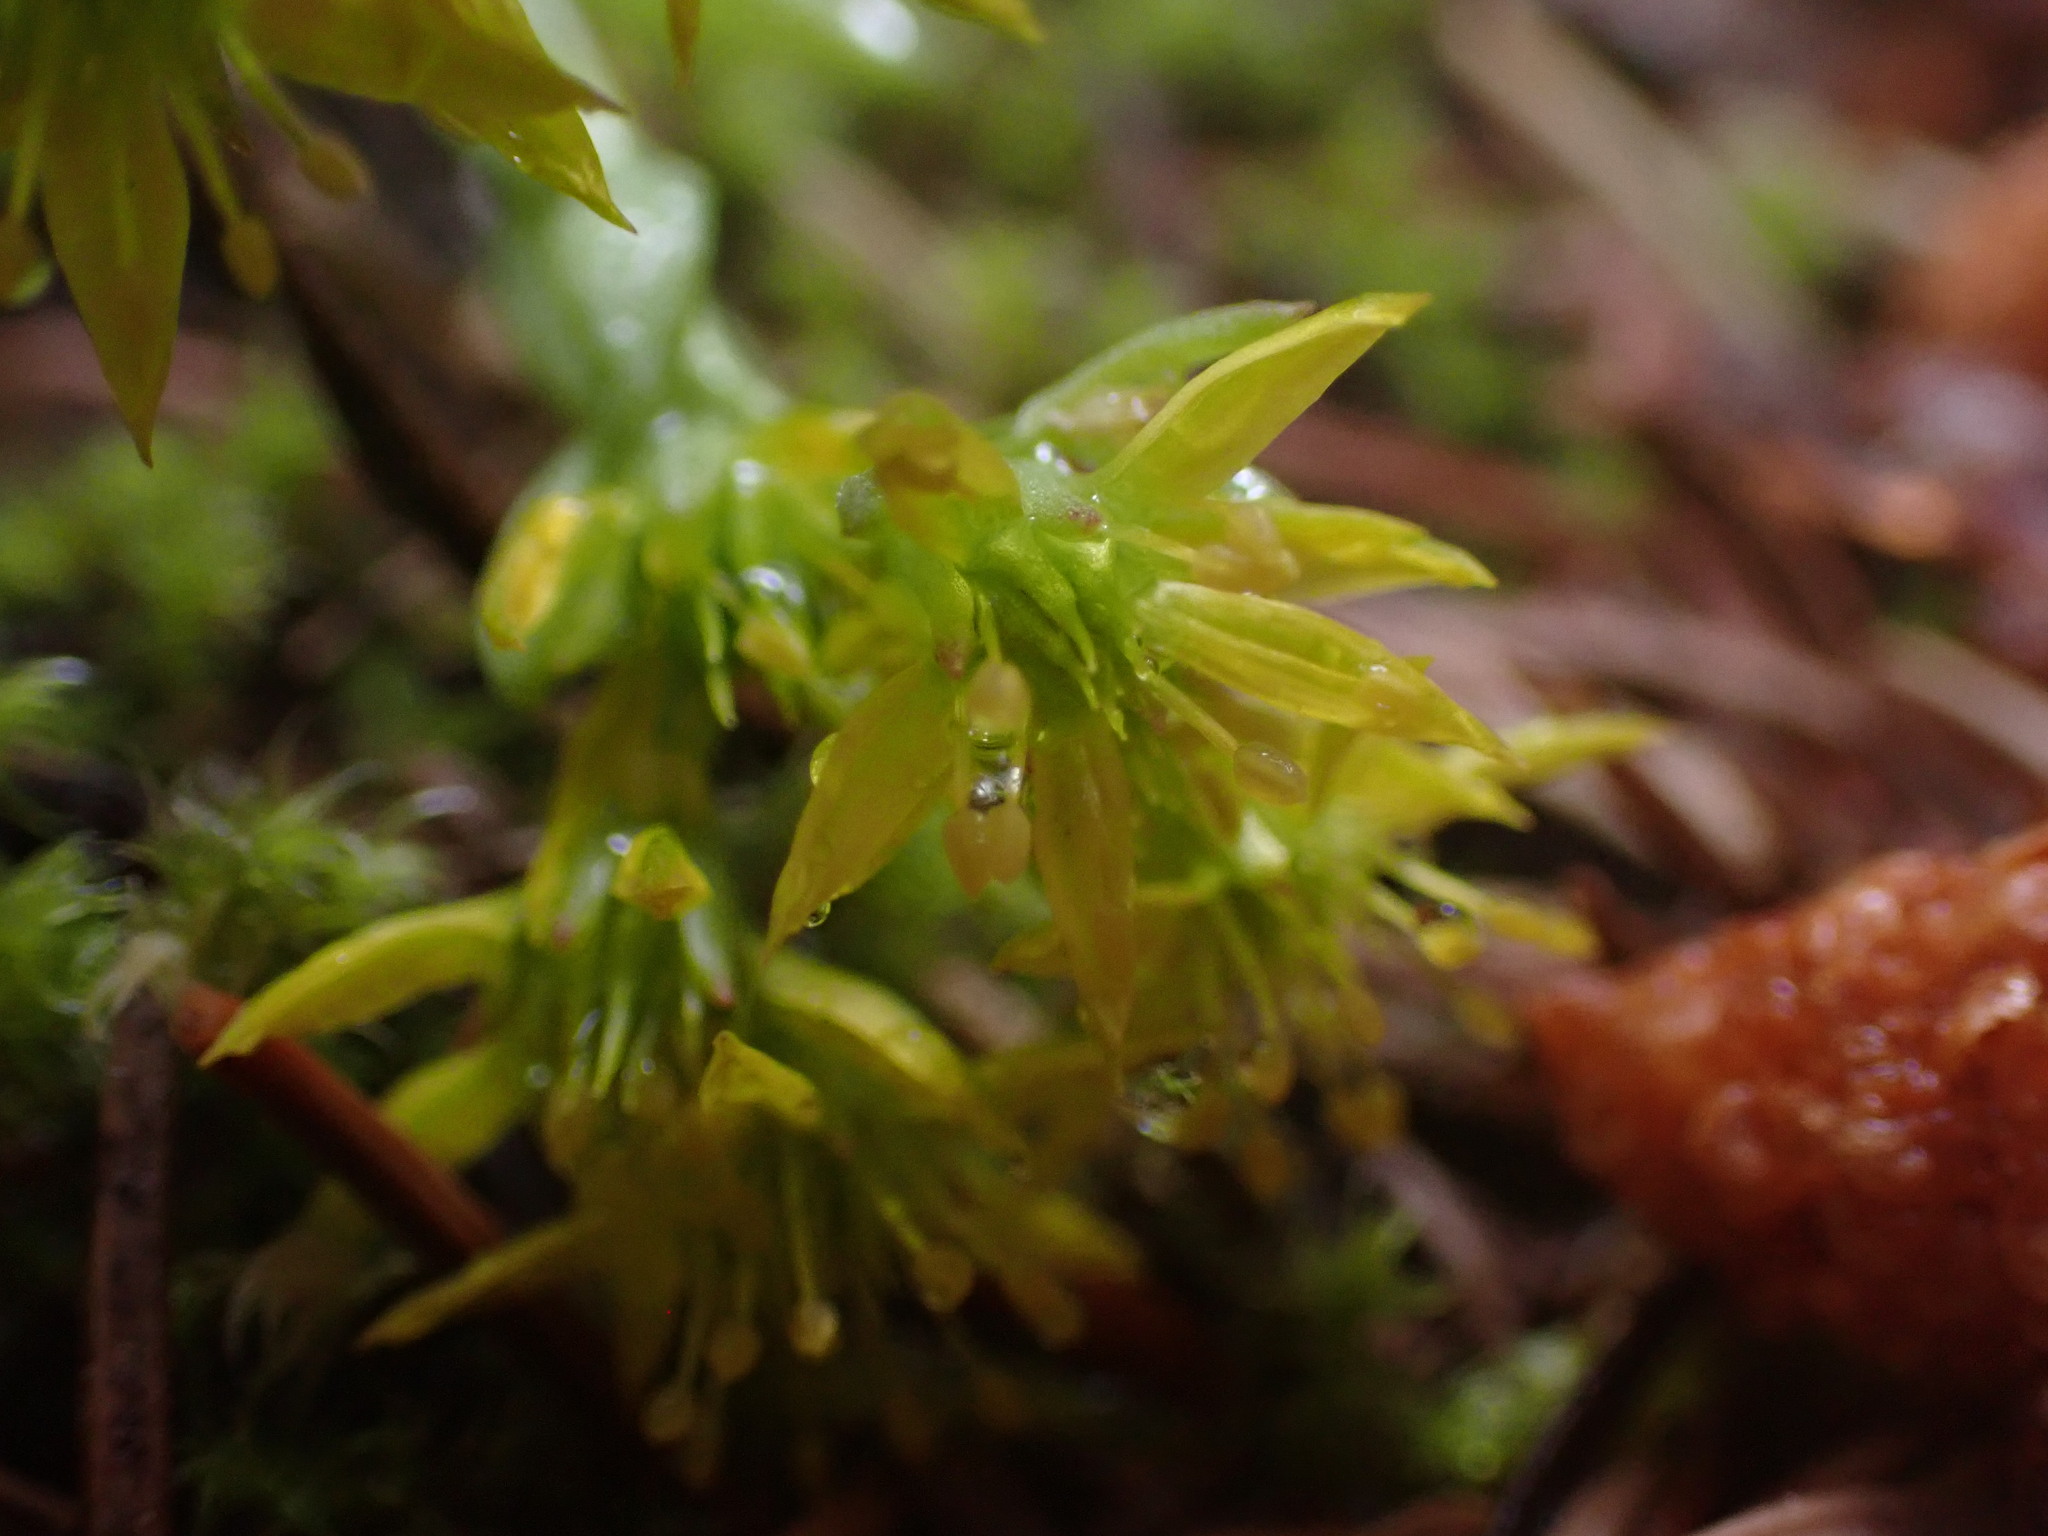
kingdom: Plantae
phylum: Tracheophyta
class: Magnoliopsida
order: Saxifragales
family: Crassulaceae
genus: Sedum
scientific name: Sedum lanceolatum
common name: Common stonecrop
